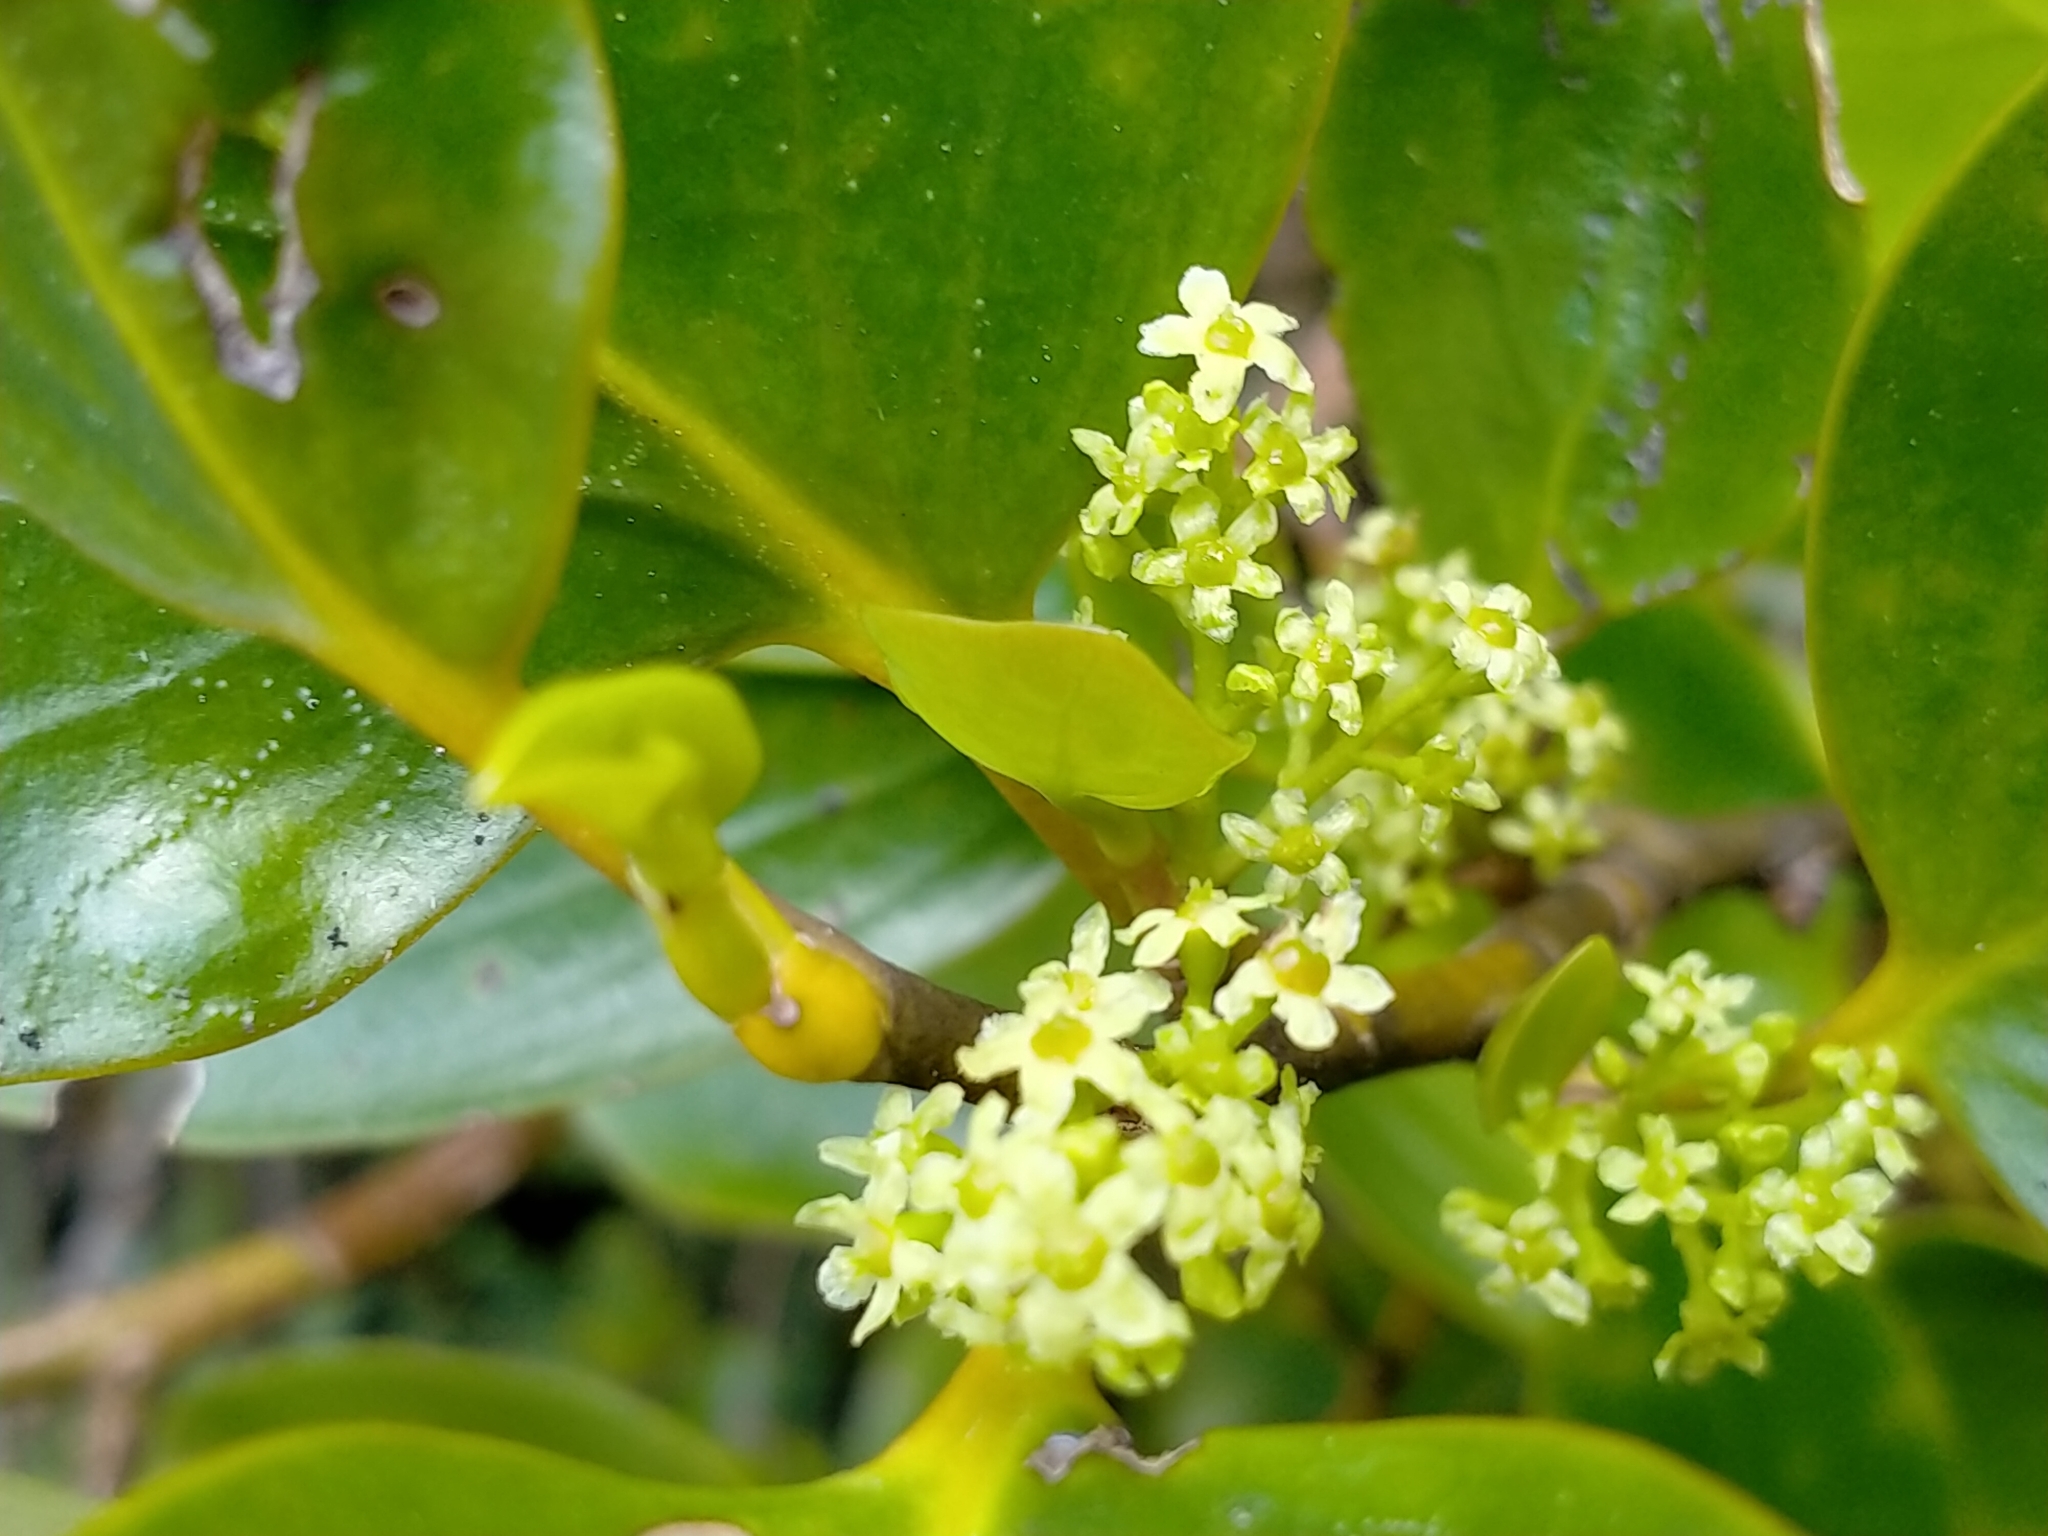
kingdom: Plantae
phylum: Tracheophyta
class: Magnoliopsida
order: Apiales
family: Griseliniaceae
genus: Griselinia
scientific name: Griselinia littoralis
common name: New zealand broadleaf
